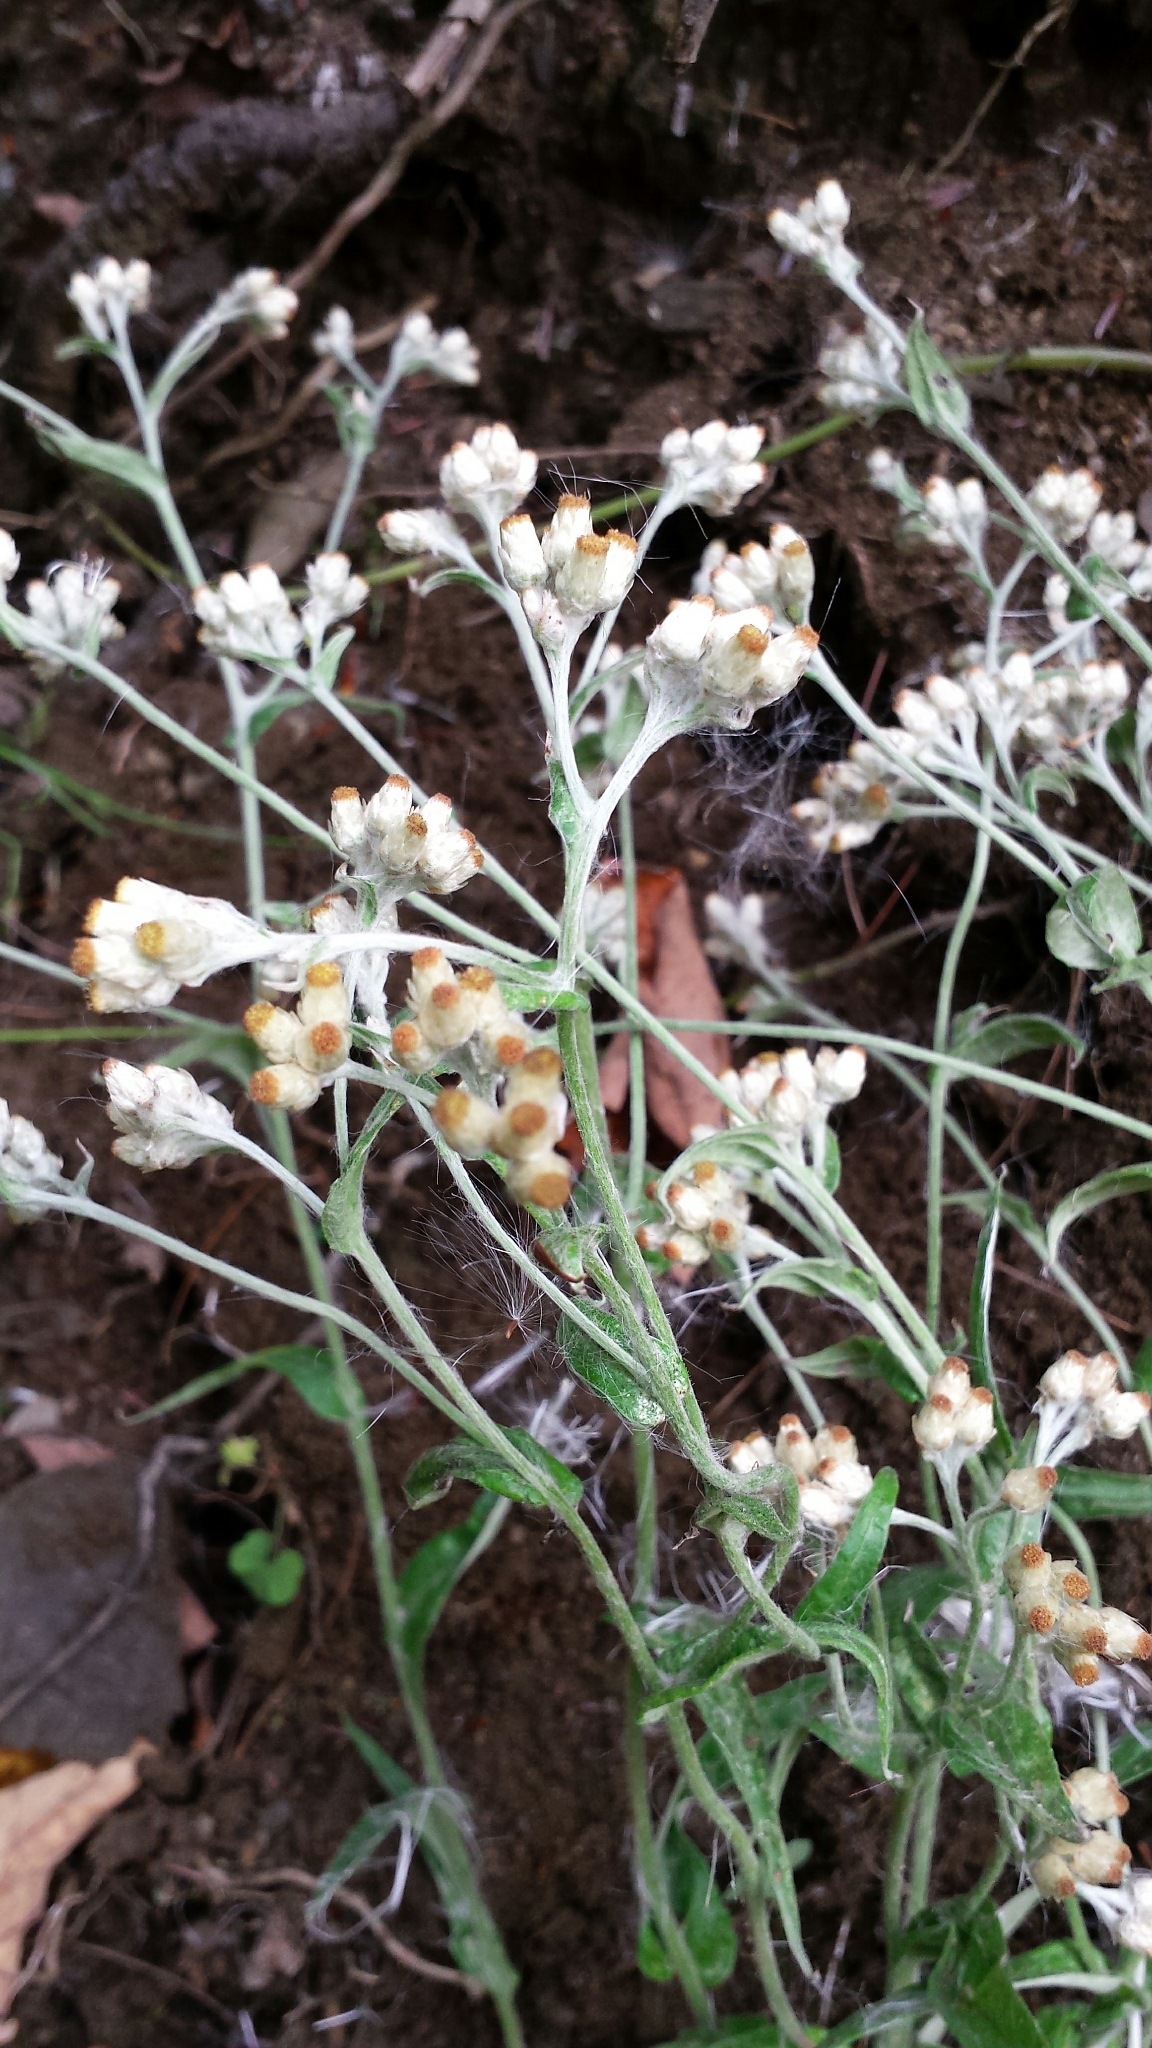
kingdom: Plantae
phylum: Tracheophyta
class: Magnoliopsida
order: Asterales
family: Asteraceae
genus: Pseudognaphalium
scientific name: Pseudognaphalium obtusifolium
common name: Eastern rabbit-tobacco
